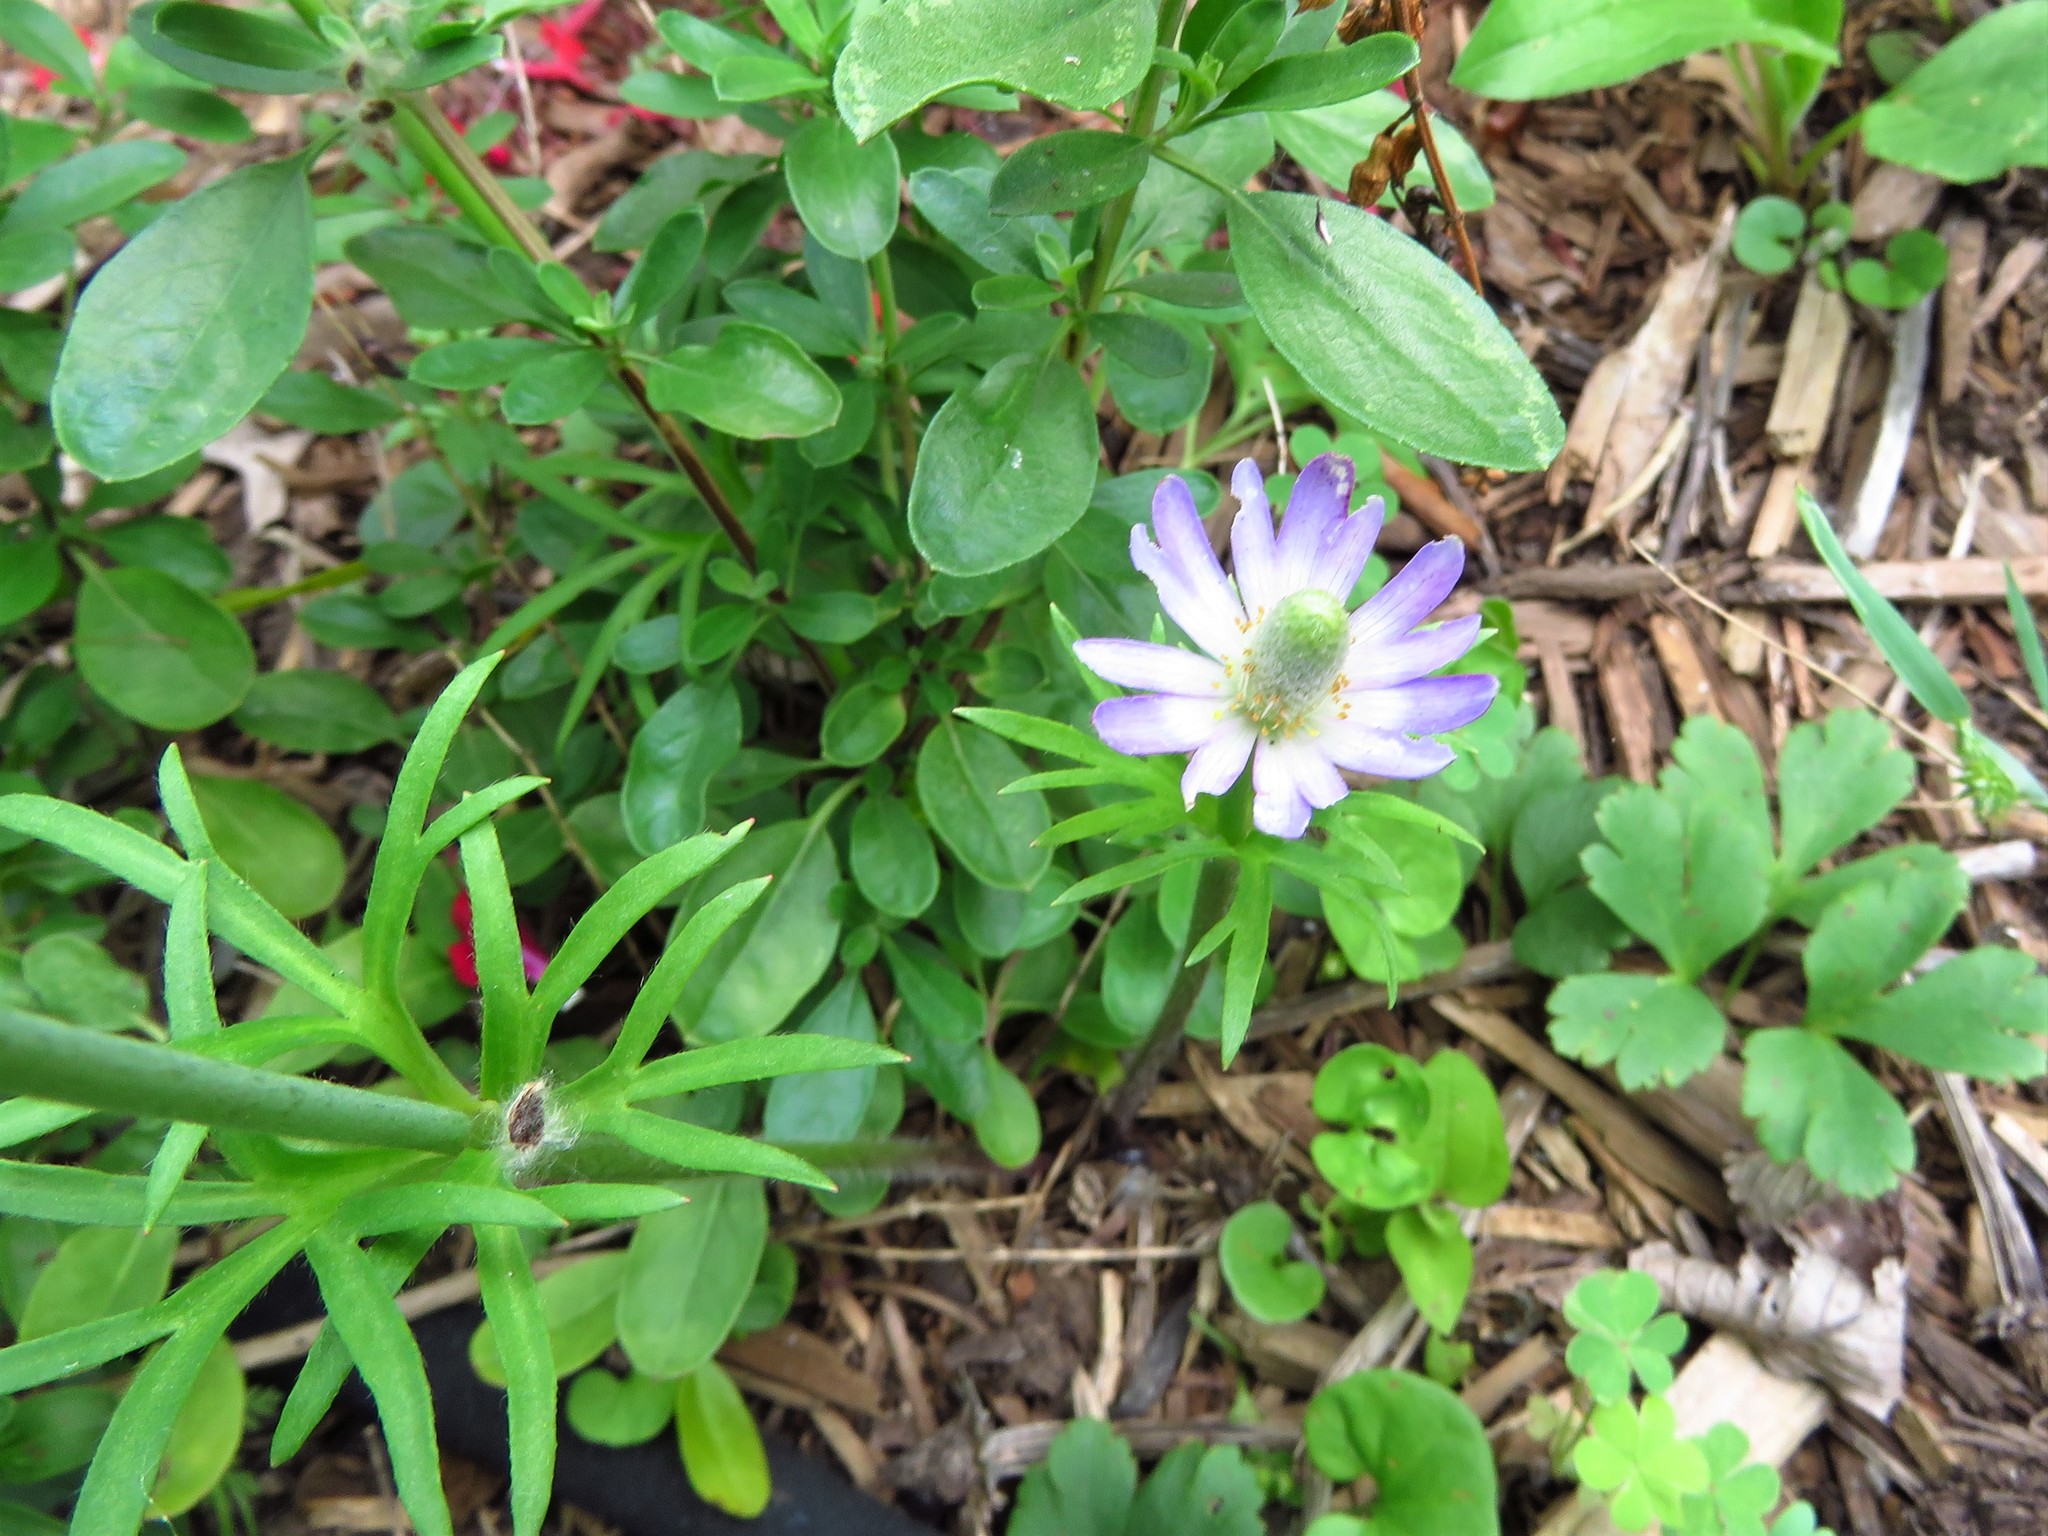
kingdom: Plantae
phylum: Tracheophyta
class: Magnoliopsida
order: Ranunculales
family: Ranunculaceae
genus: Anemone
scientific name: Anemone berlandieri
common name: Ten-petal anemone
